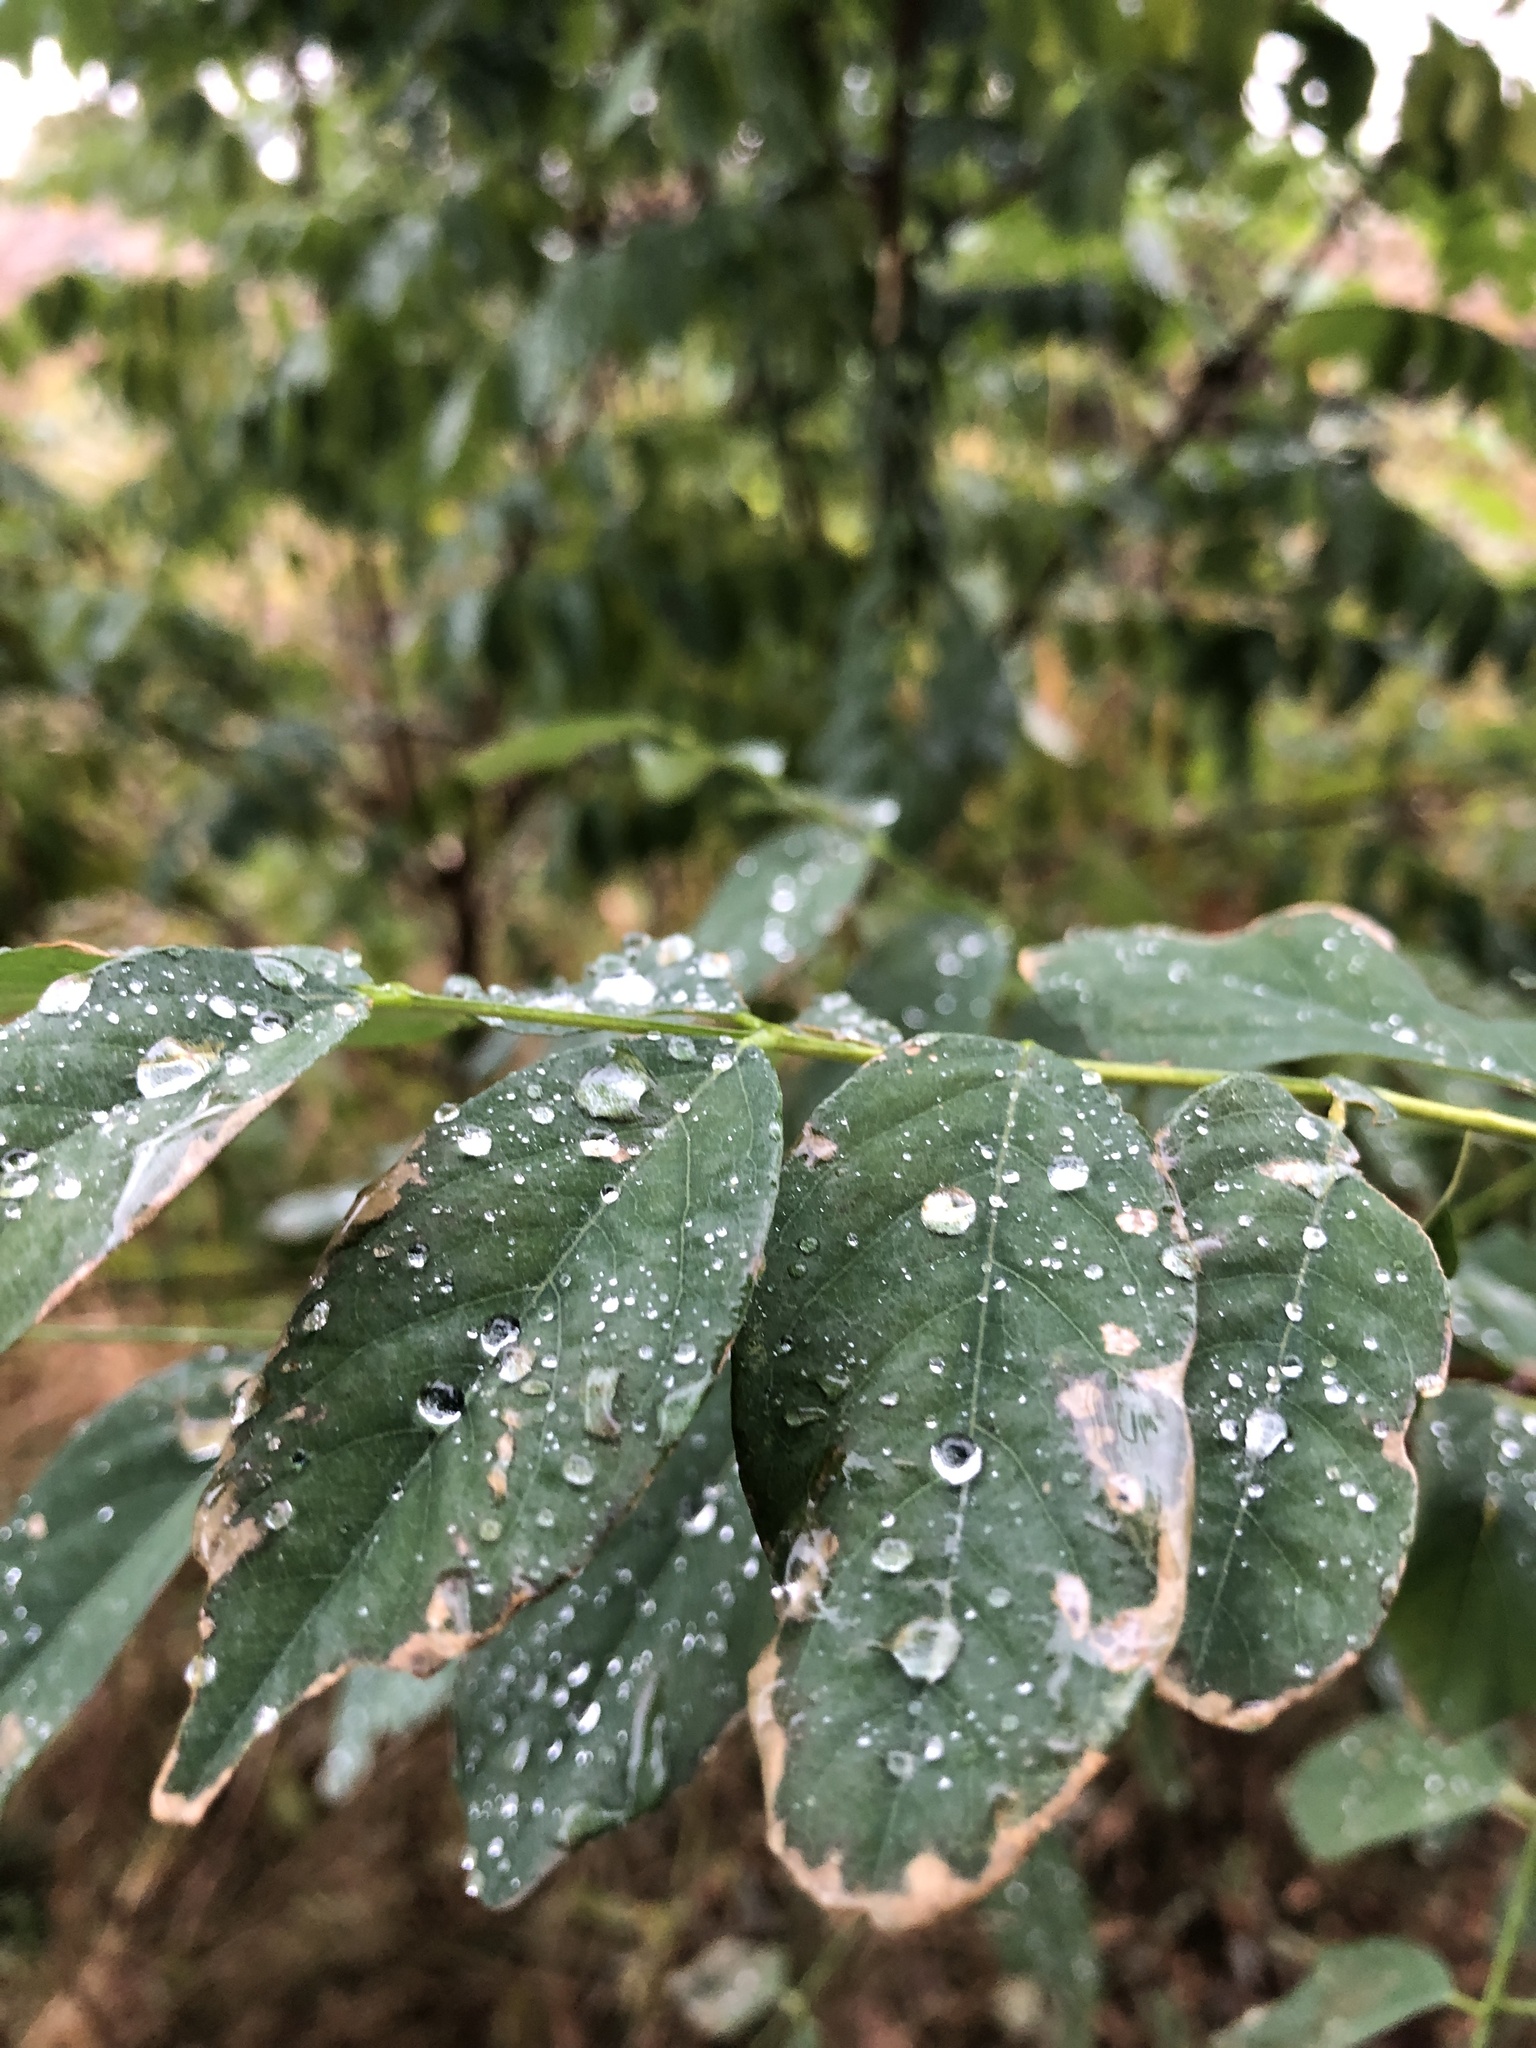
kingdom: Plantae
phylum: Tracheophyta
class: Magnoliopsida
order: Fabales
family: Fabaceae
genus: Robinia
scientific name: Robinia pseudoacacia
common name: Black locust
